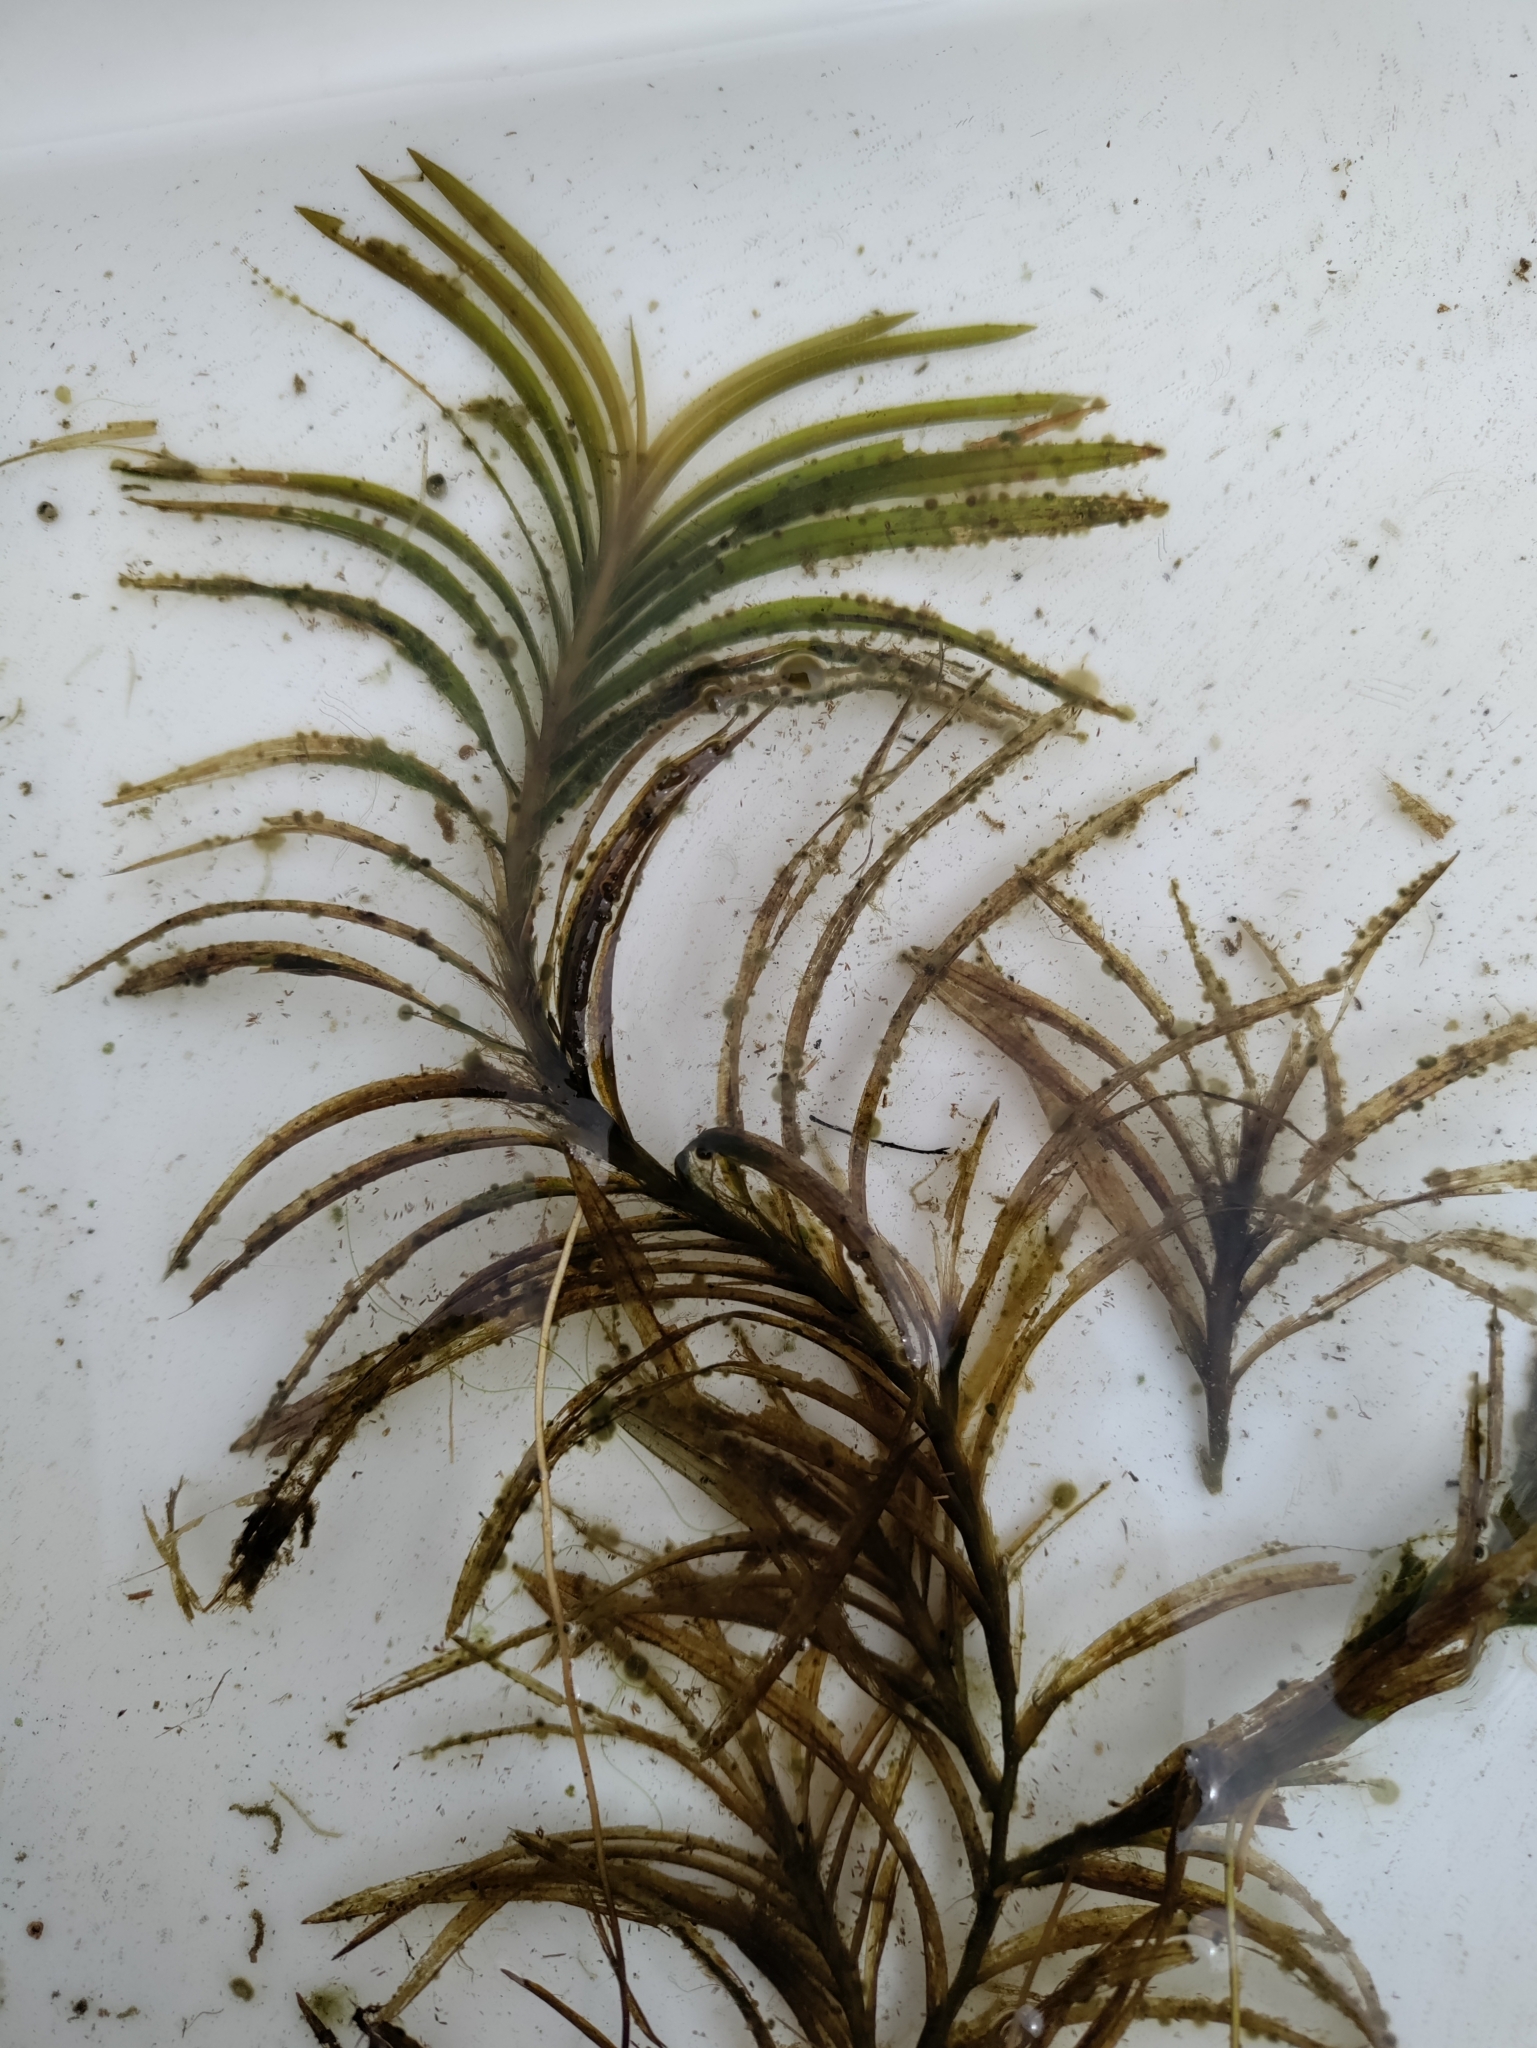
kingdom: Plantae
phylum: Tracheophyta
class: Liliopsida
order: Alismatales
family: Potamogetonaceae
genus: Potamogeton
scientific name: Potamogeton robbinsii
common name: Fern pondweed
